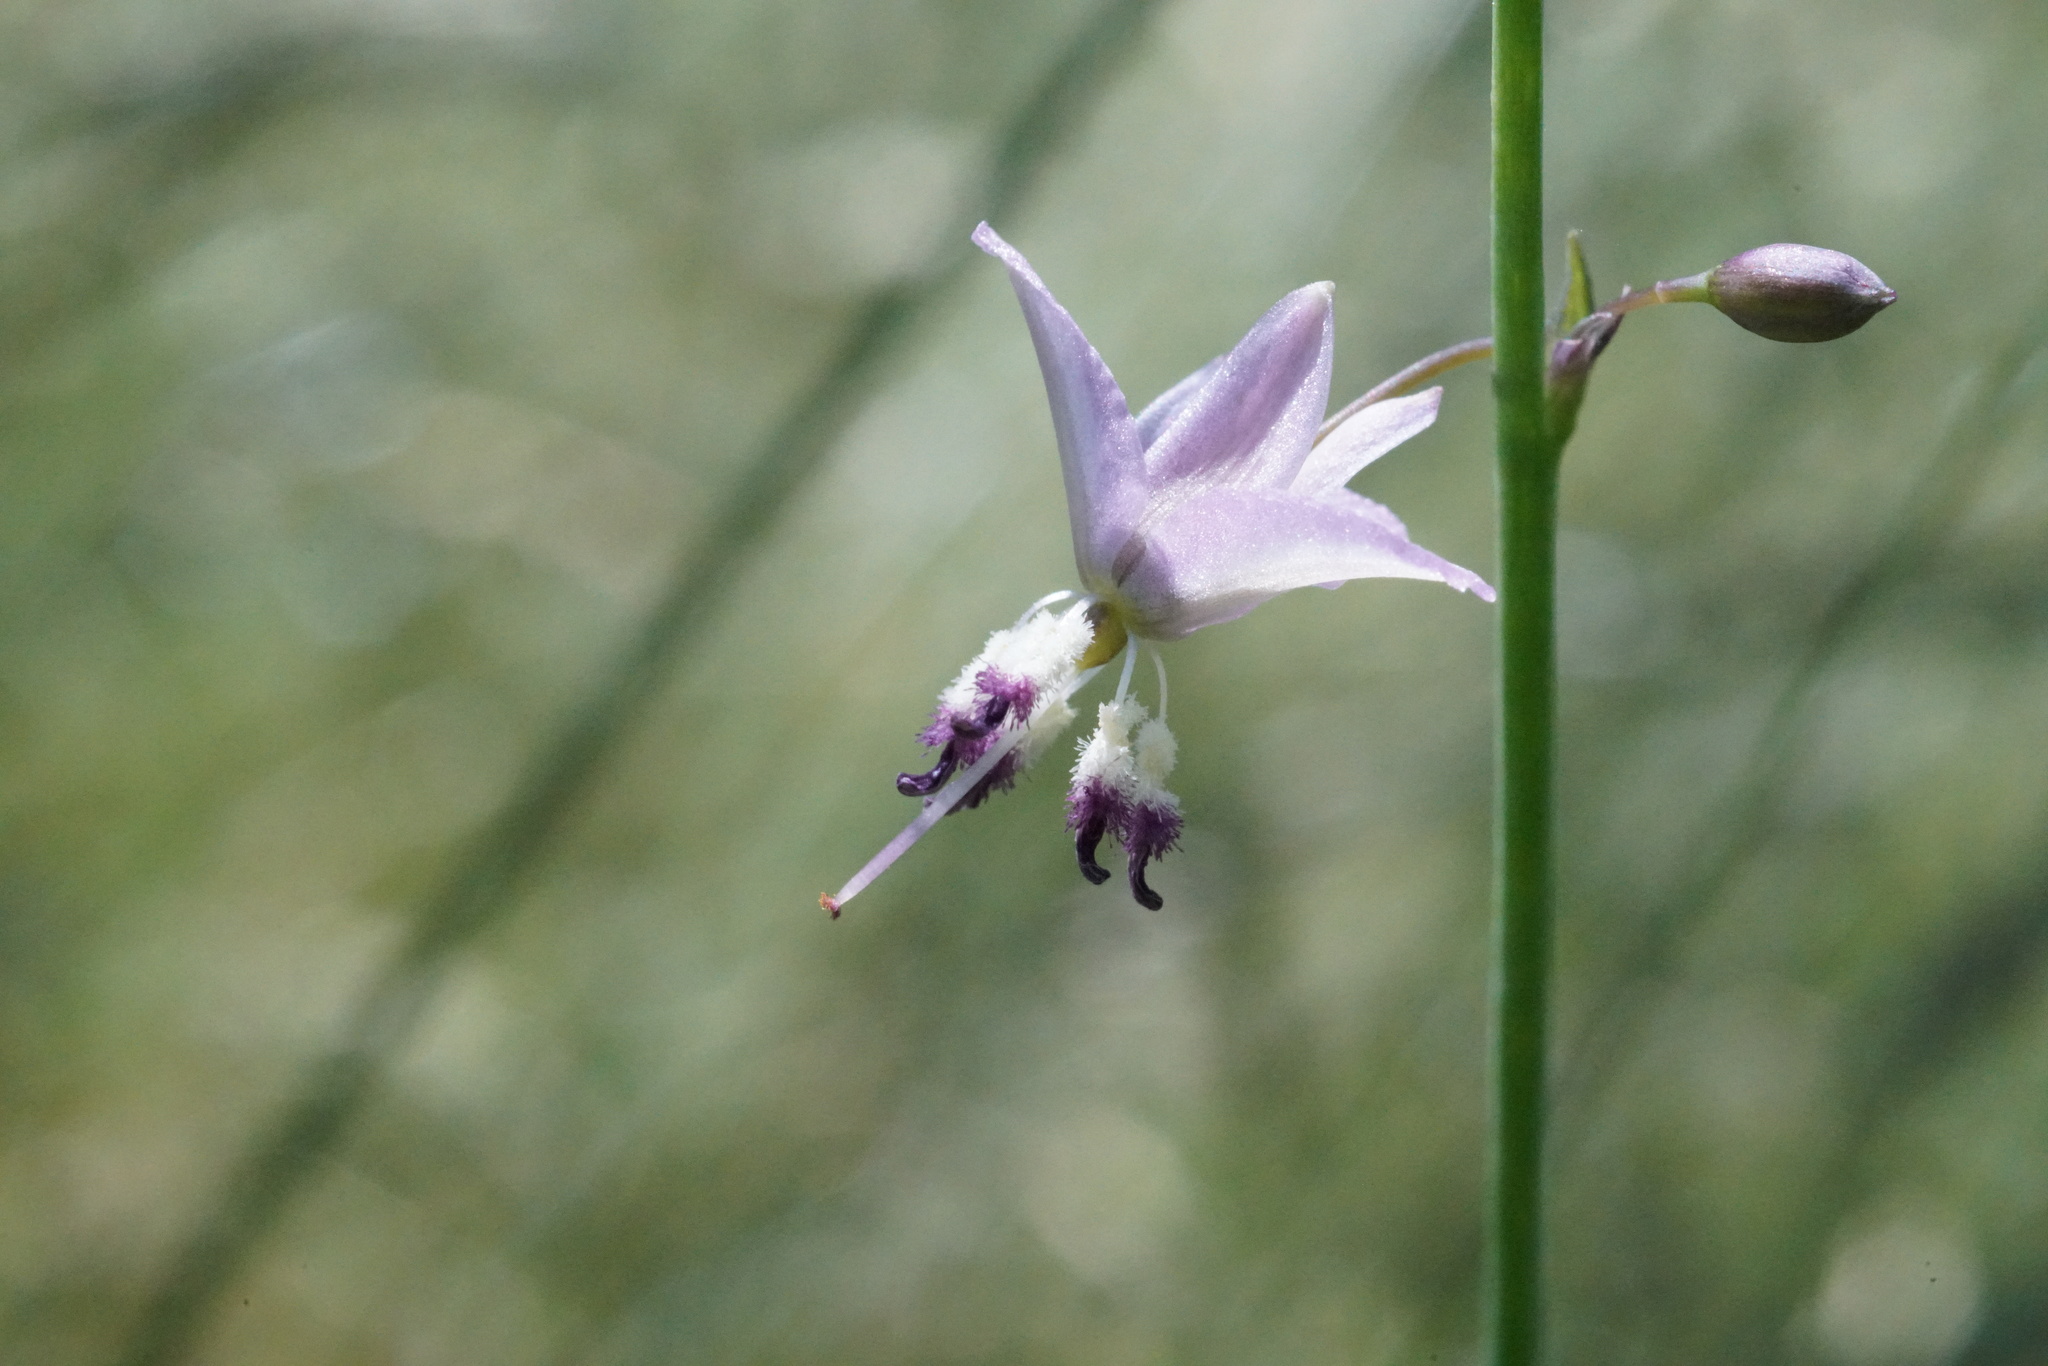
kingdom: Plantae
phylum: Tracheophyta
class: Liliopsida
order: Asparagales
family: Asparagaceae
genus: Arthropodium
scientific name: Arthropodium milleflorum
